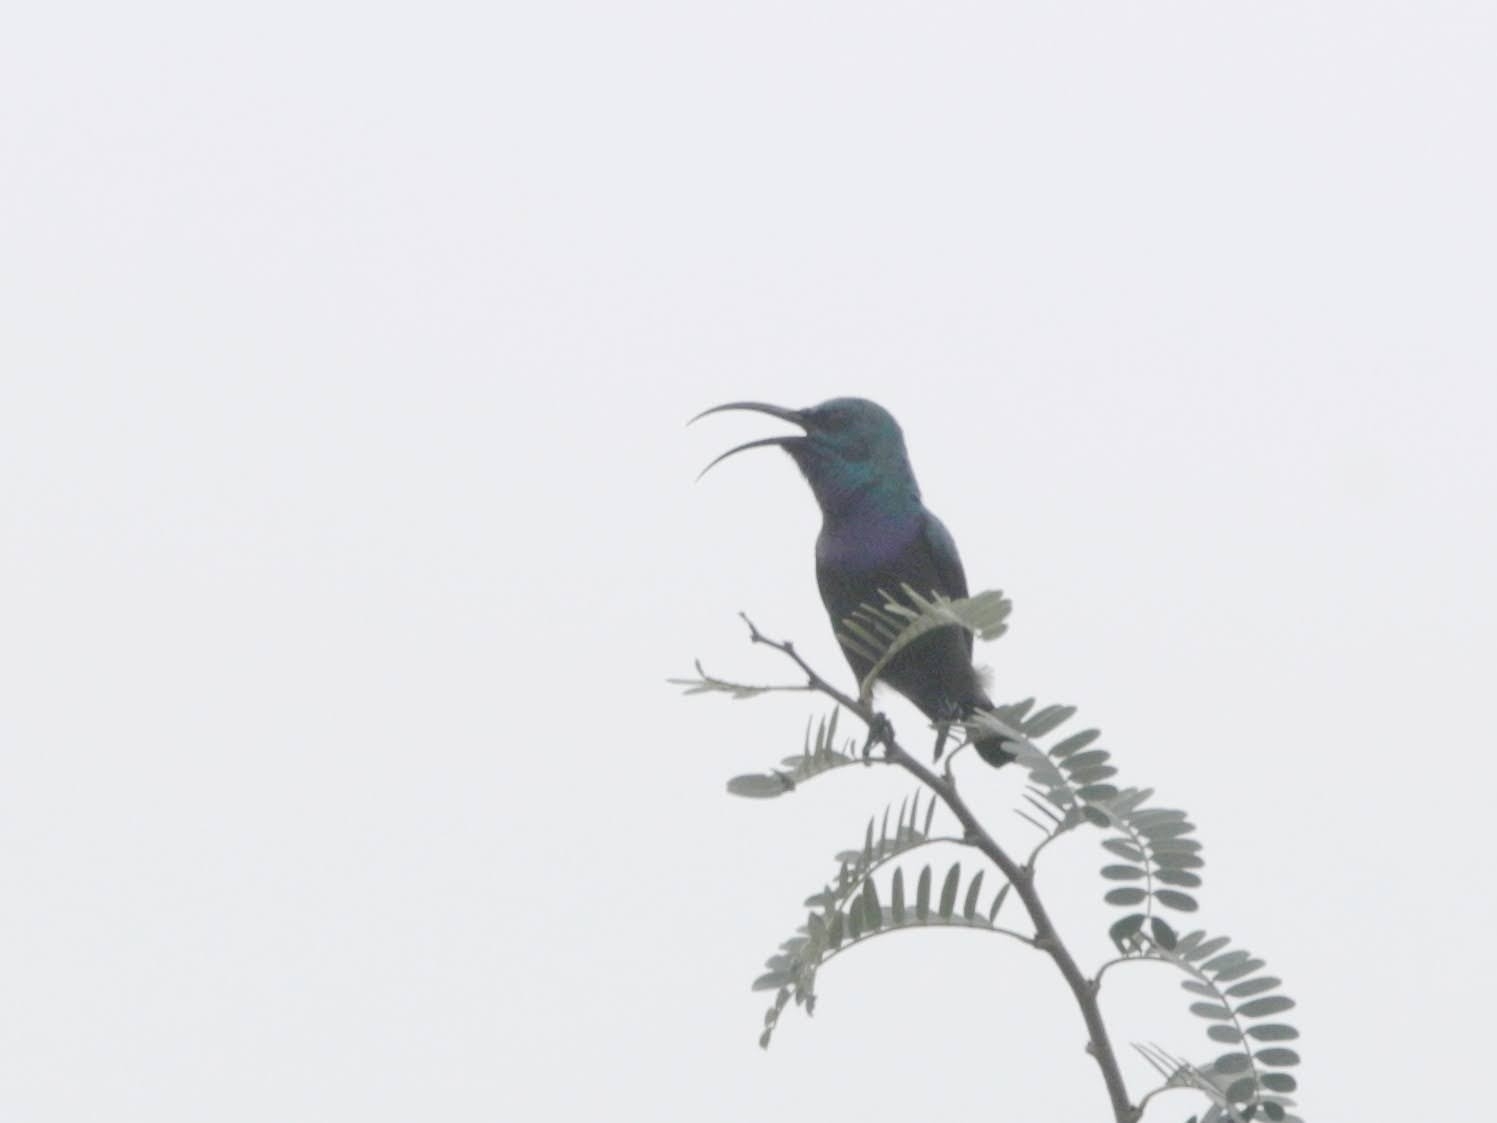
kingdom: Animalia
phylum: Chordata
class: Aves
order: Passeriformes
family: Nectariniidae
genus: Cinnyris
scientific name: Cinnyris lotenius
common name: Loten's sunbird
